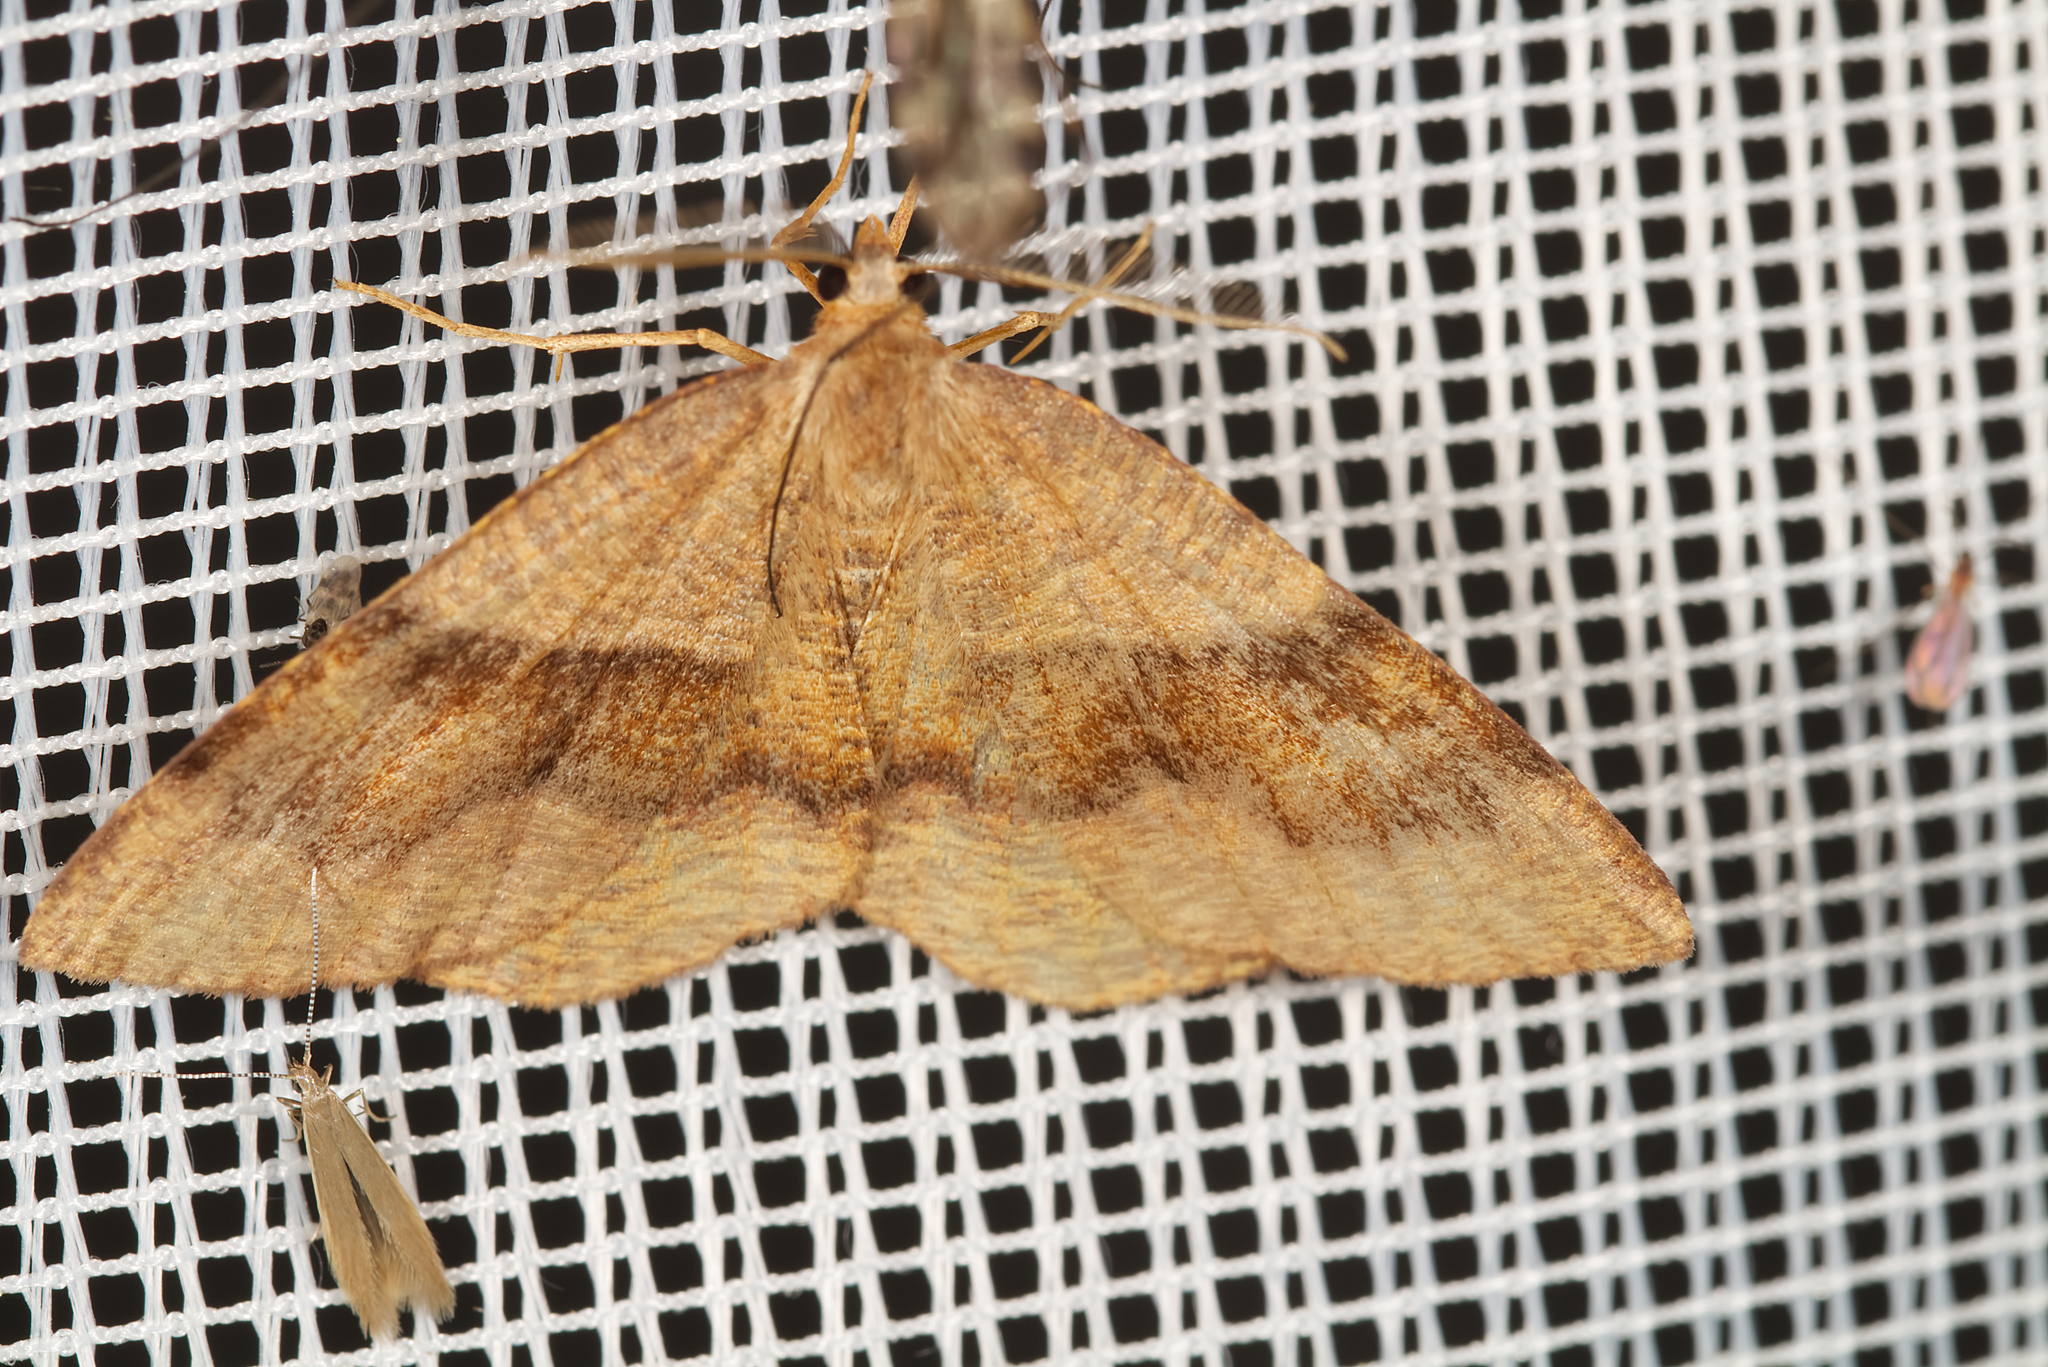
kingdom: Animalia
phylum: Arthropoda
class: Insecta
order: Lepidoptera
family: Geometridae
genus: Plagodis
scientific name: Plagodis pulveraria
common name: Barred umber
